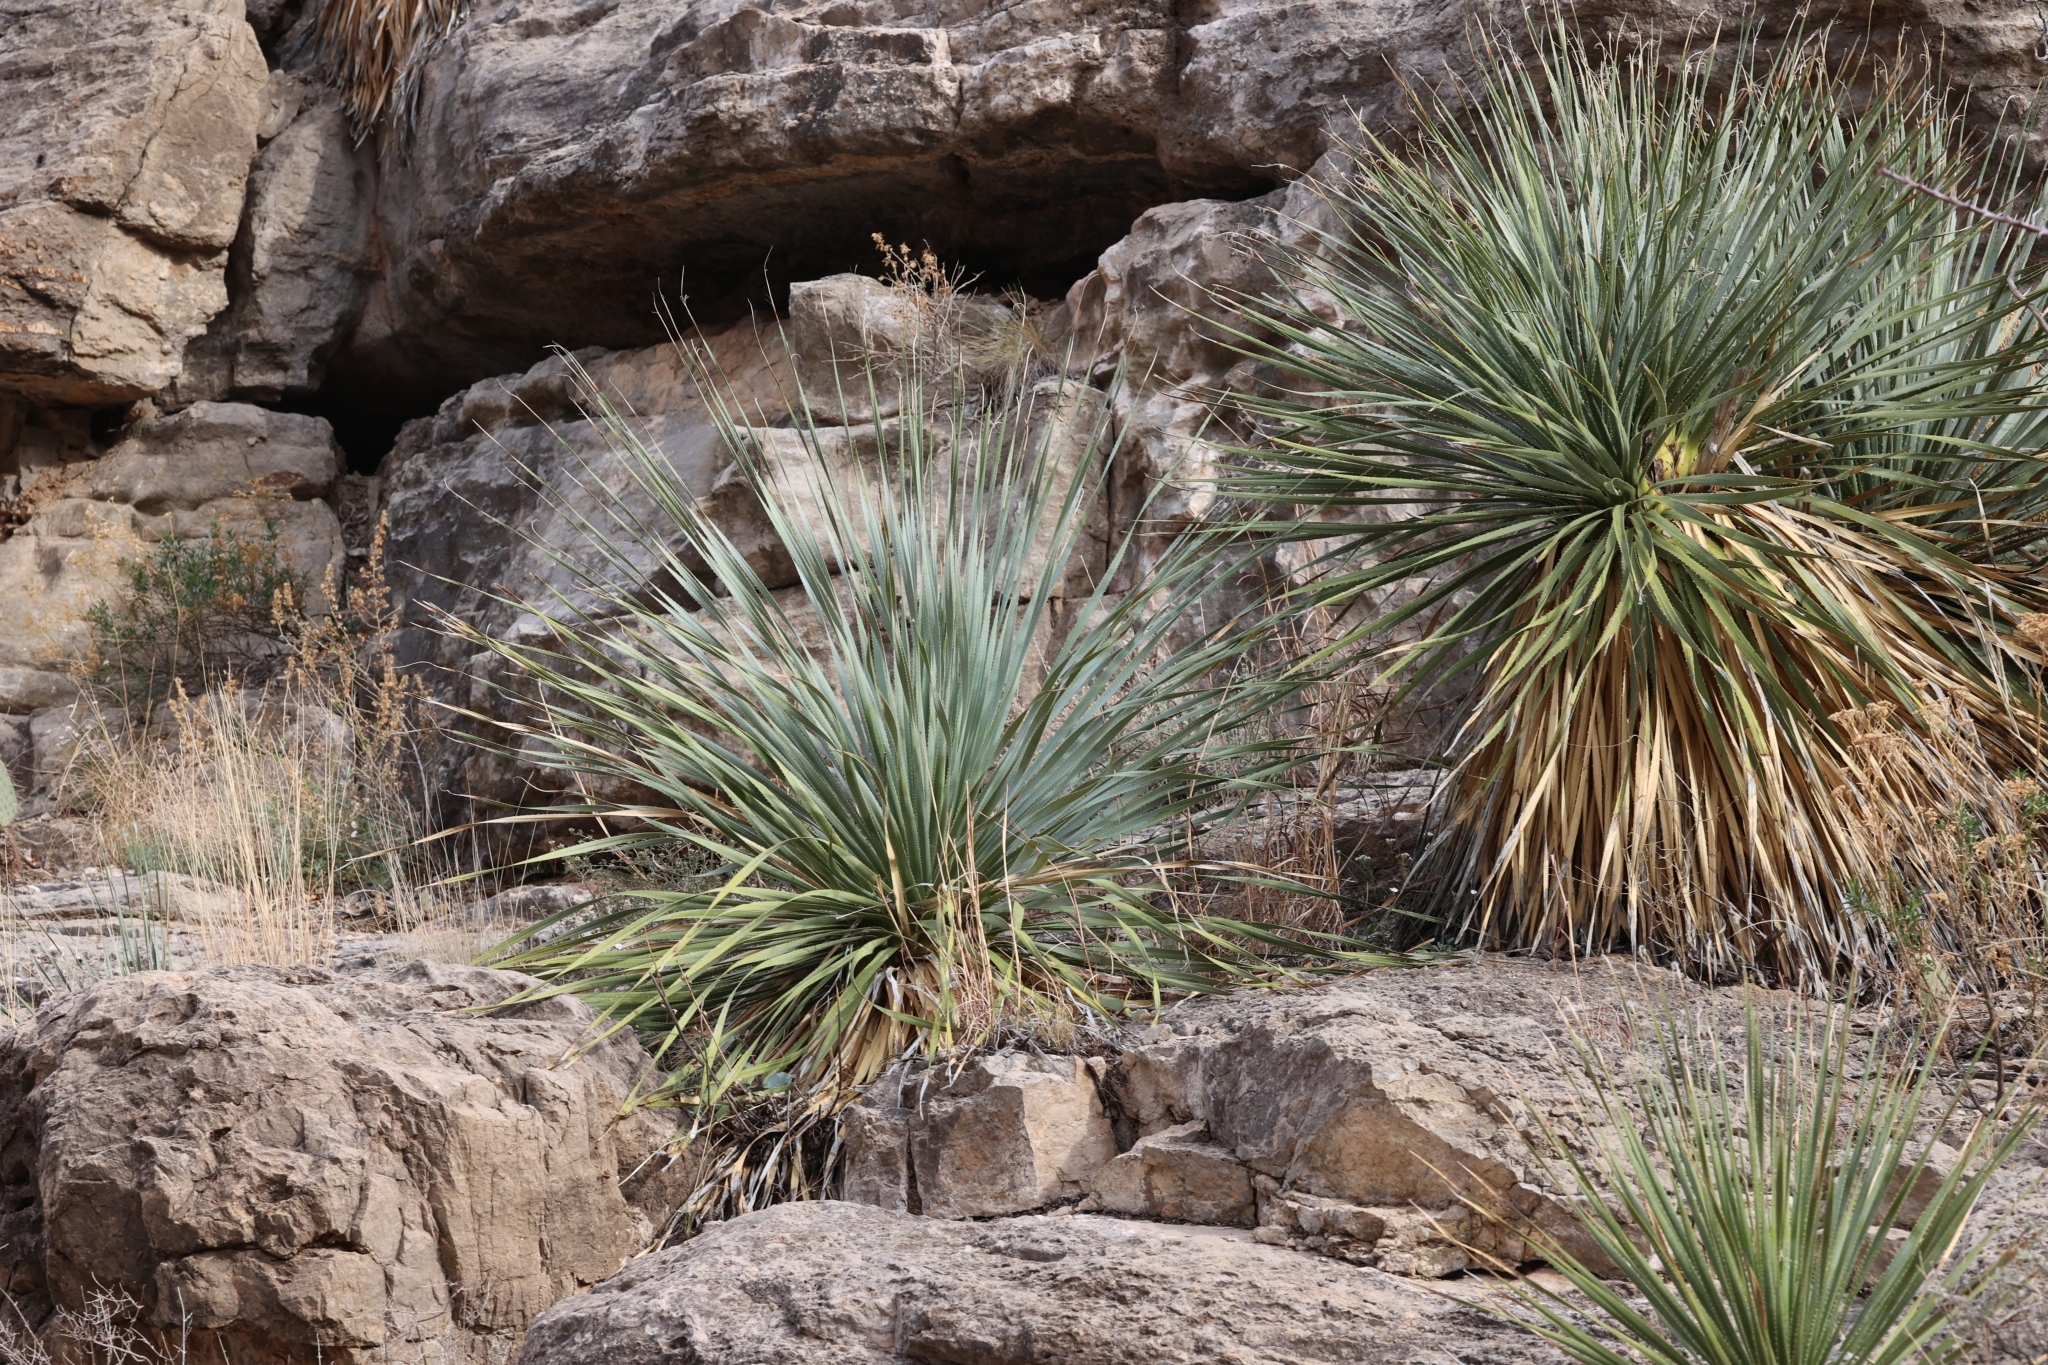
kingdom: Plantae
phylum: Tracheophyta
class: Liliopsida
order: Asparagales
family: Asparagaceae
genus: Dasylirion
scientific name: Dasylirion wheeleri
